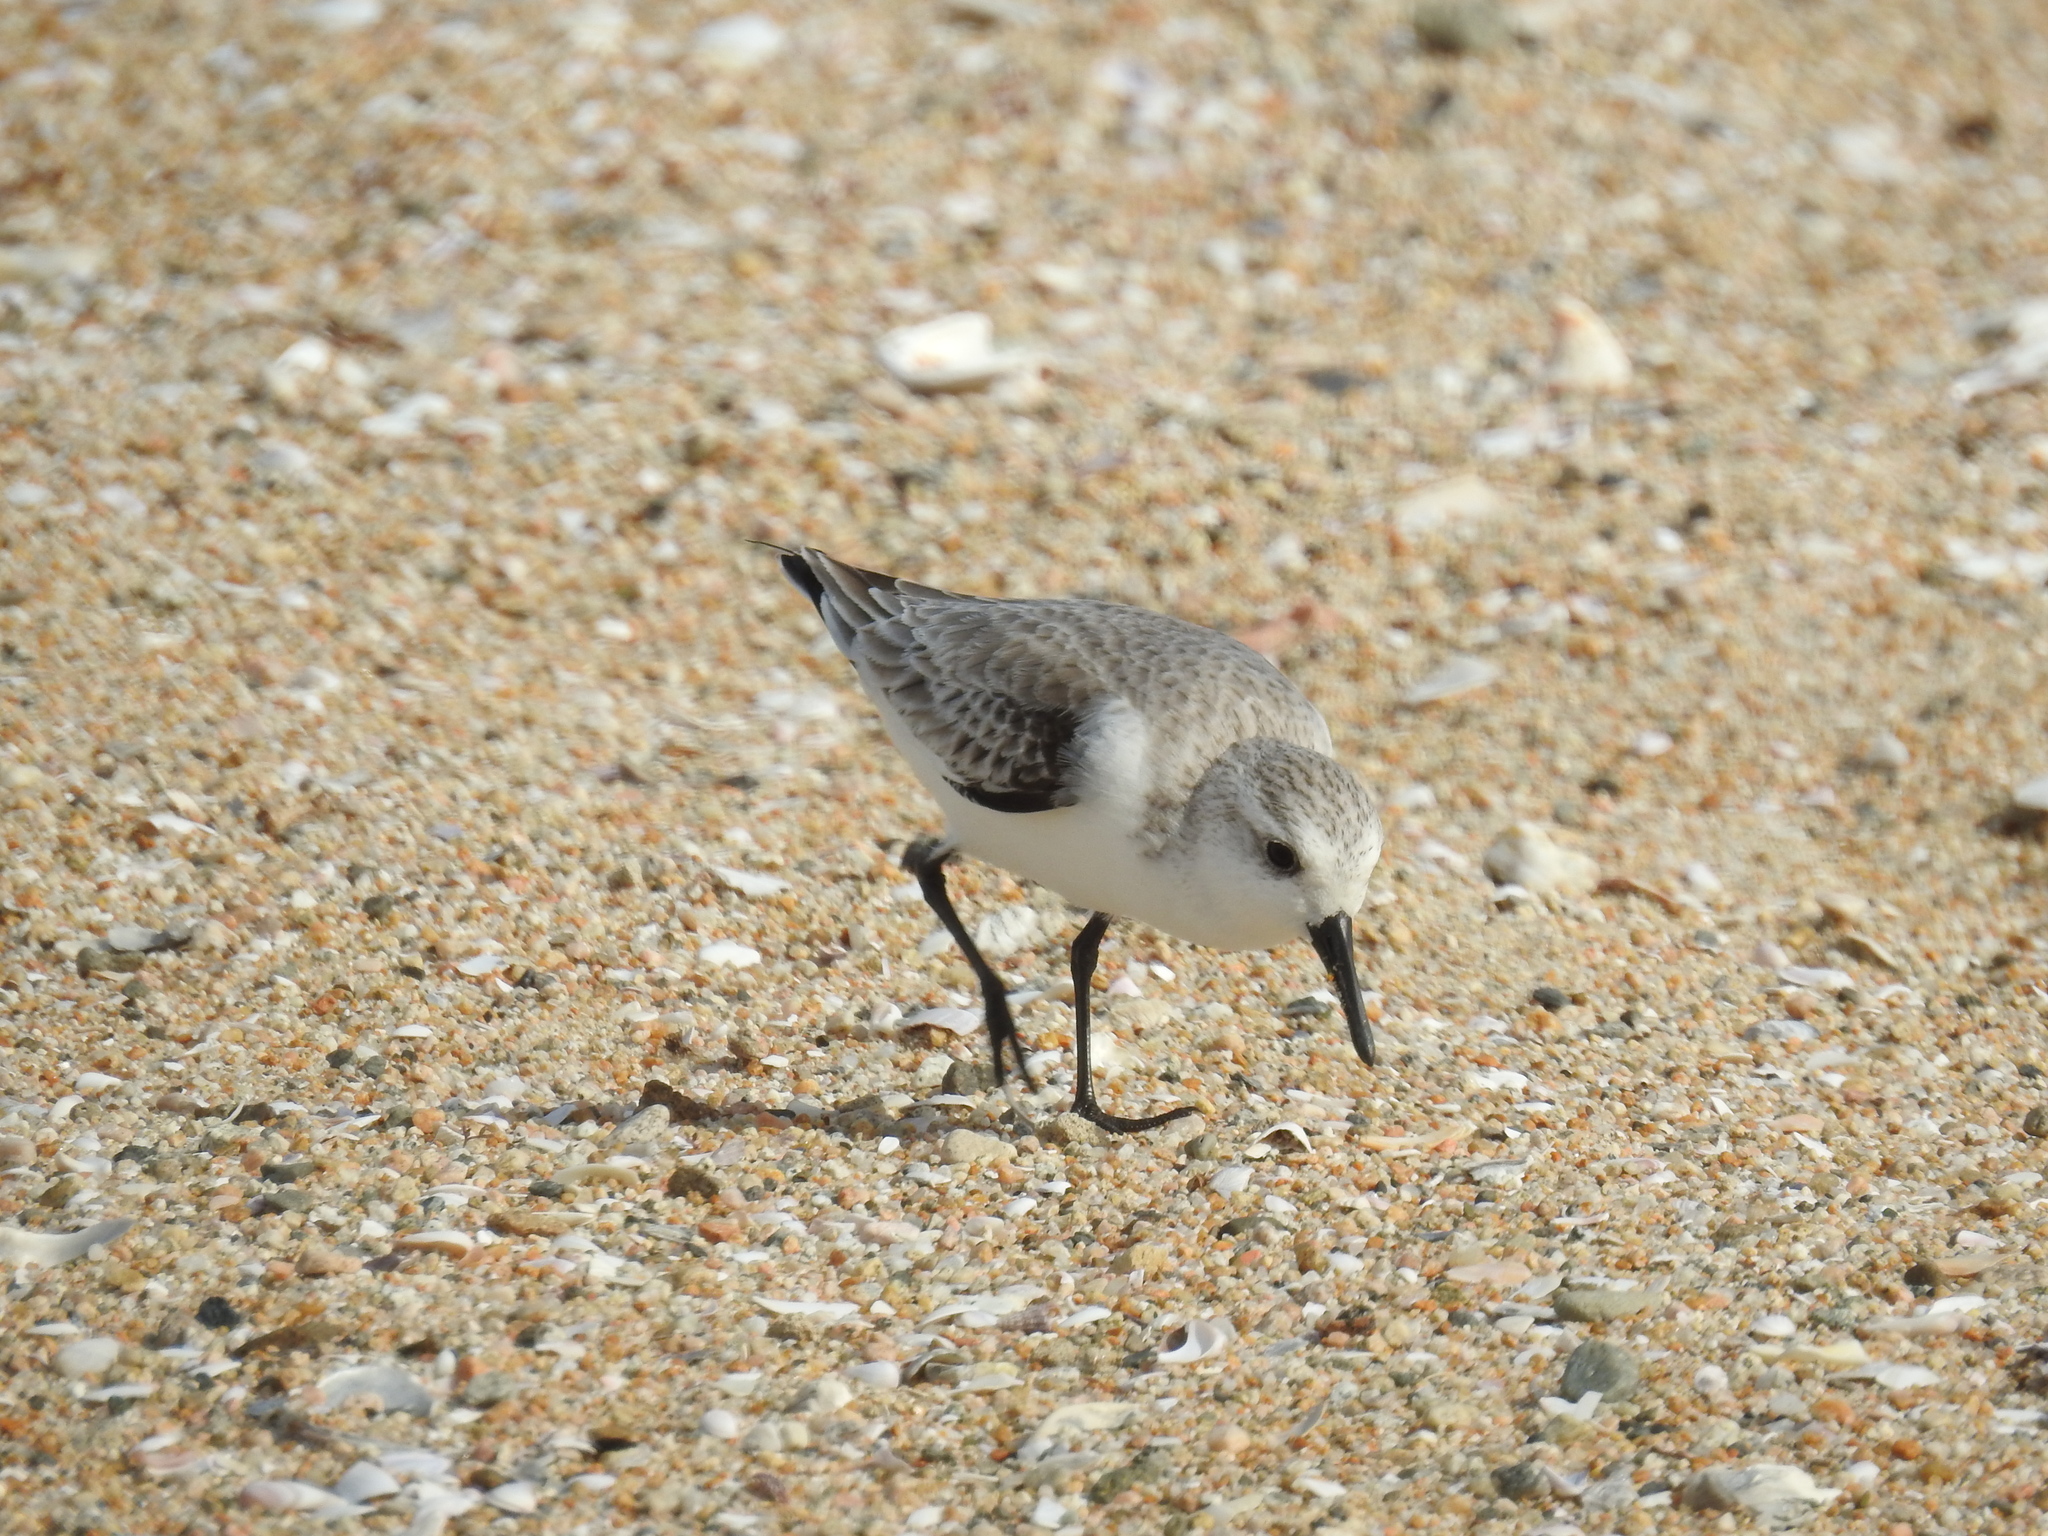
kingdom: Animalia
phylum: Chordata
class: Aves
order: Charadriiformes
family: Scolopacidae
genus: Calidris
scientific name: Calidris alba
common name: Sanderling
